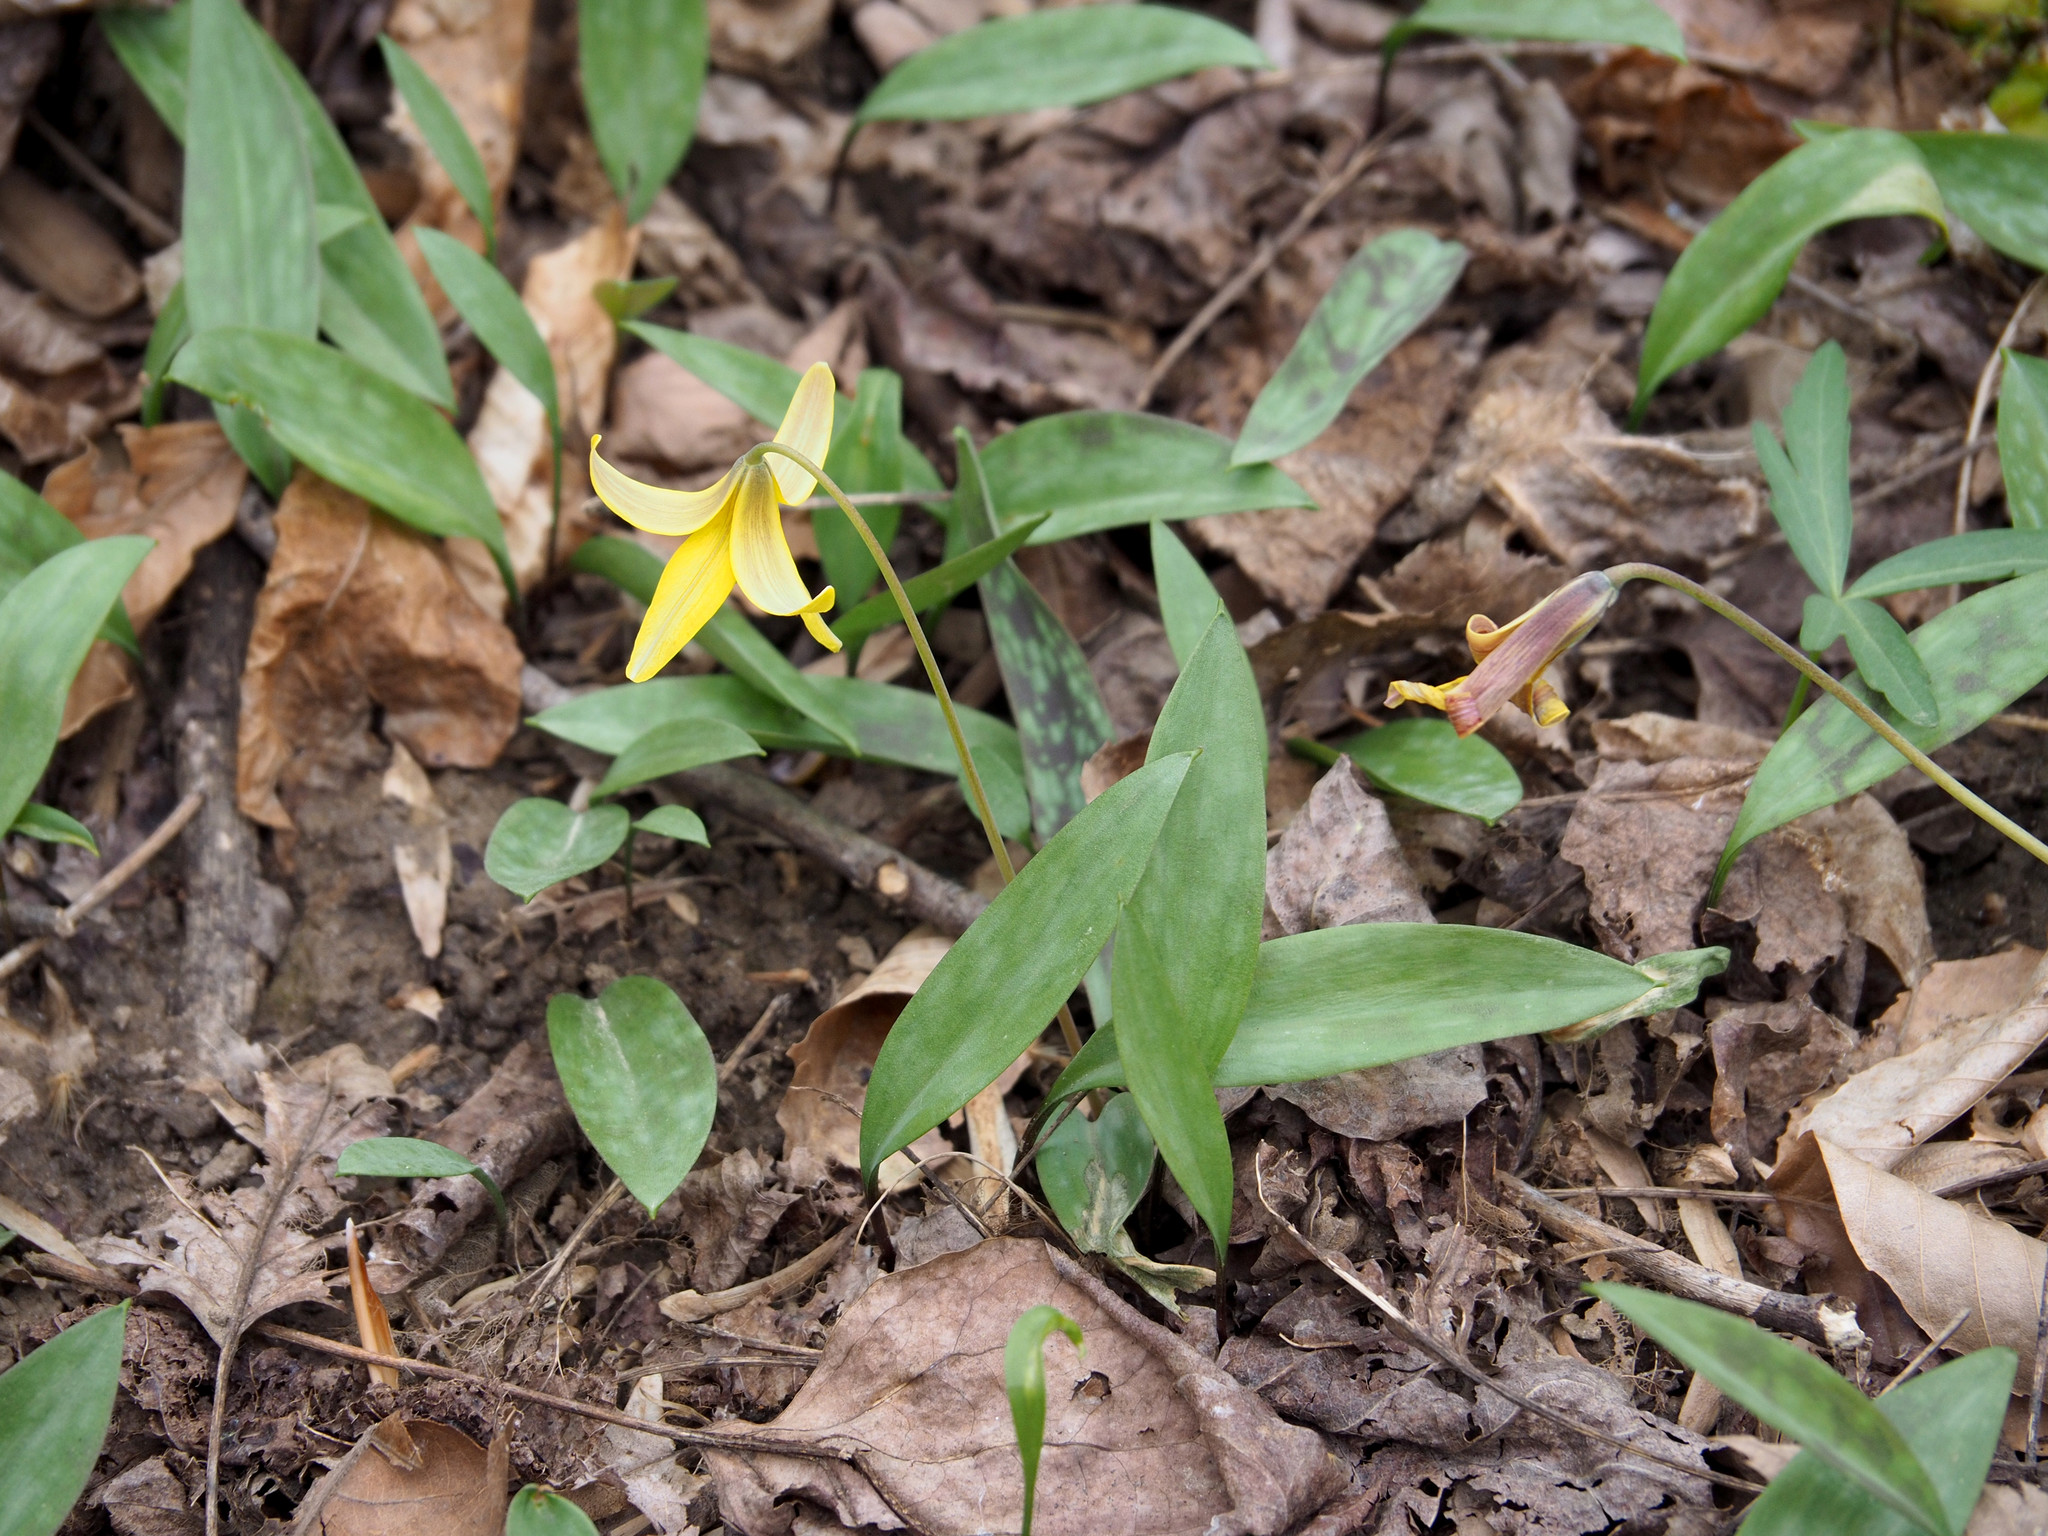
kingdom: Plantae
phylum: Tracheophyta
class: Liliopsida
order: Liliales
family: Liliaceae
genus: Erythronium
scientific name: Erythronium americanum
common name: Yellow adder's-tongue
